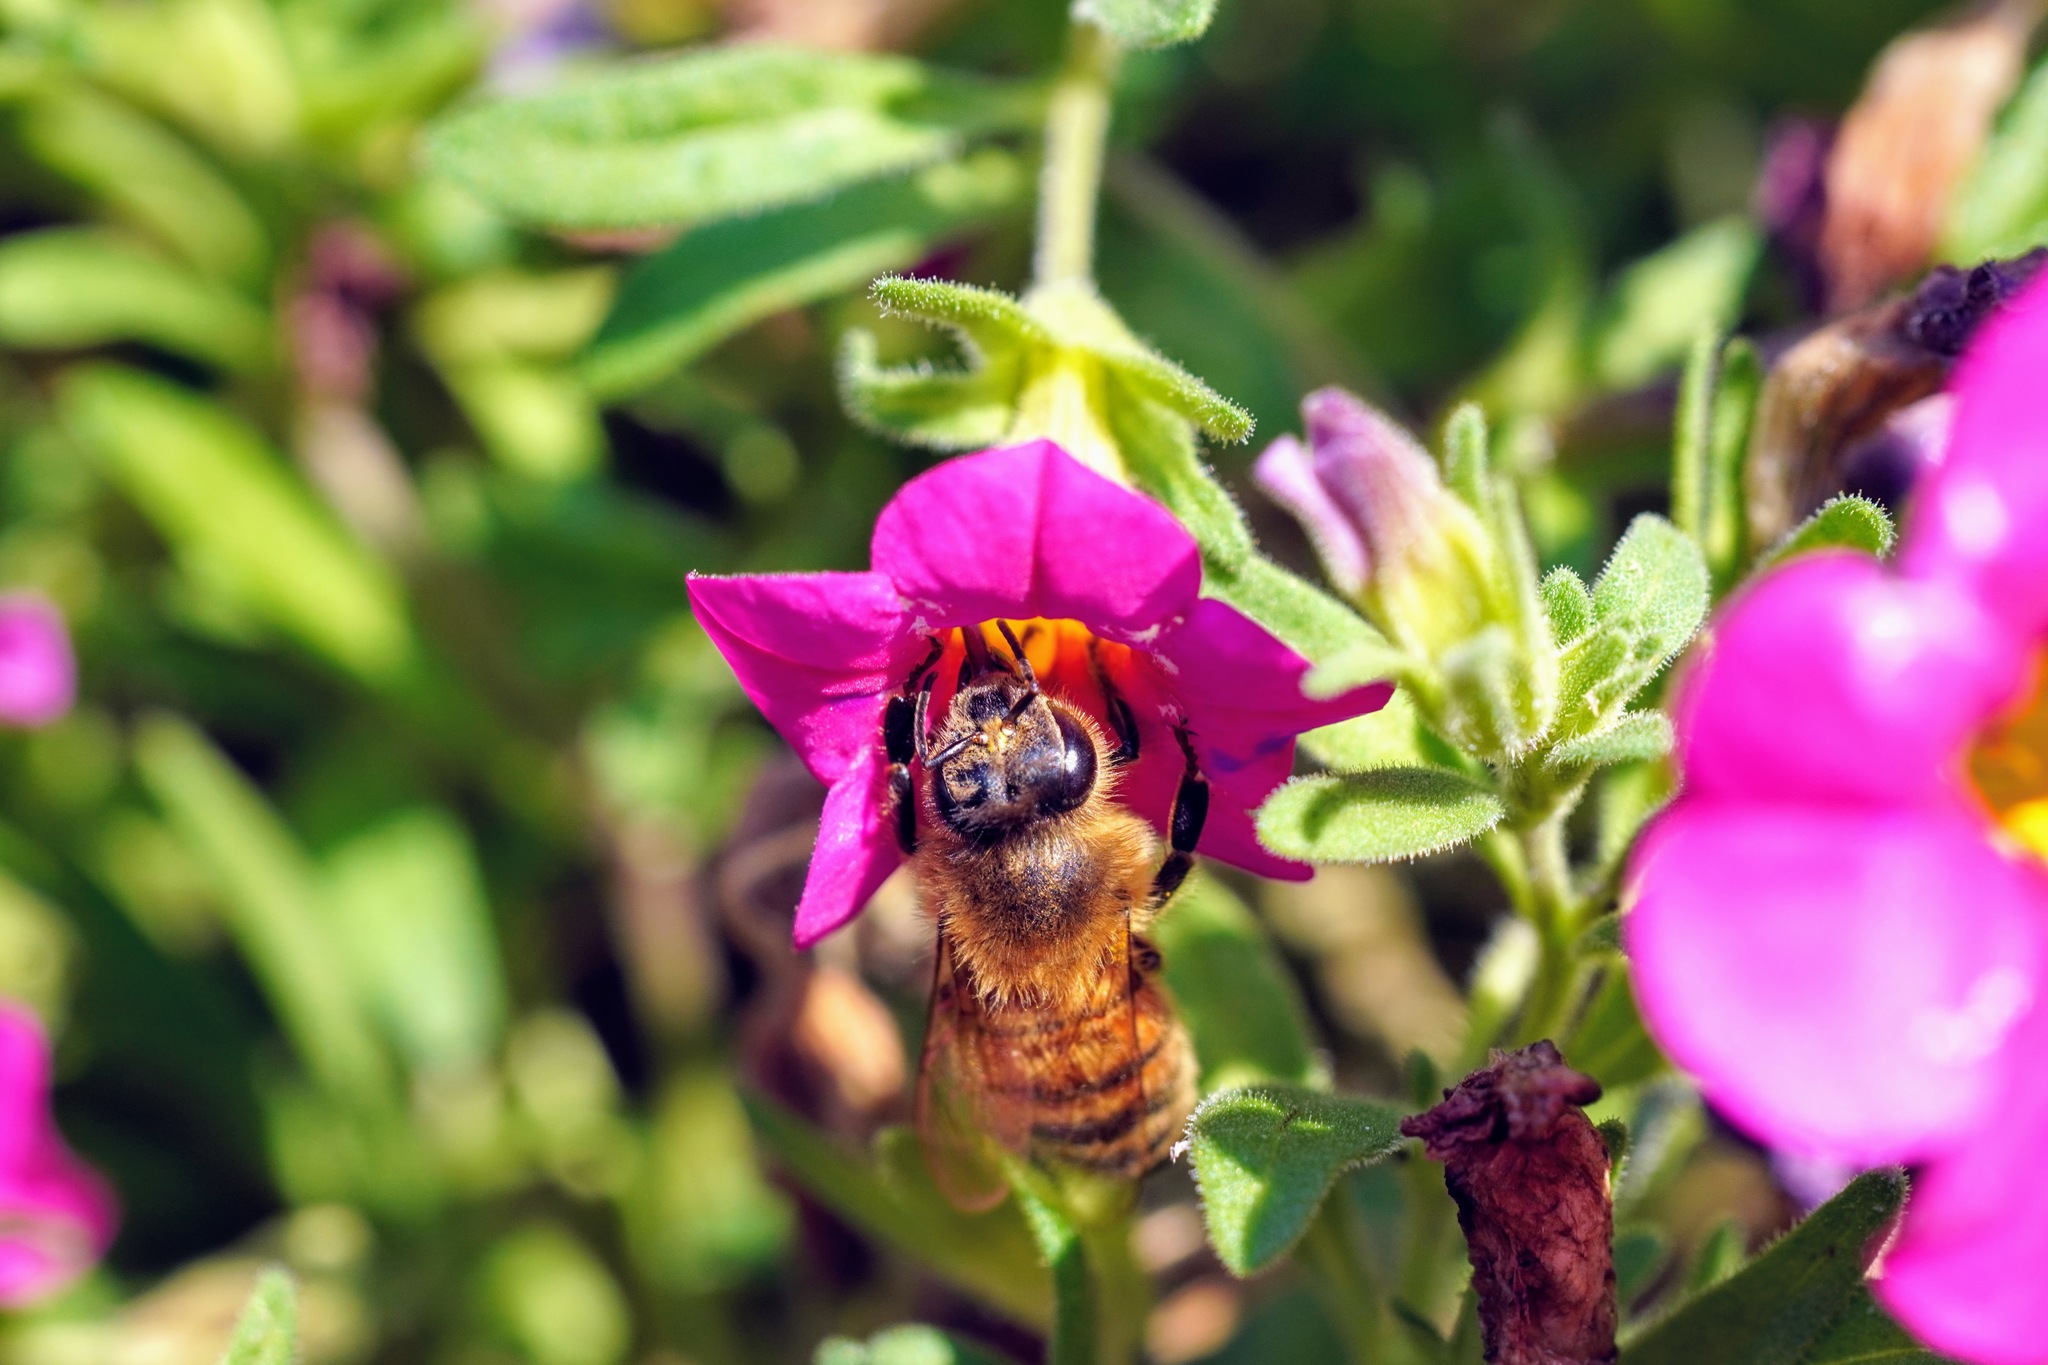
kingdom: Animalia
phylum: Arthropoda
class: Insecta
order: Hymenoptera
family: Apidae
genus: Apis
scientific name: Apis mellifera
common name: Honey bee
